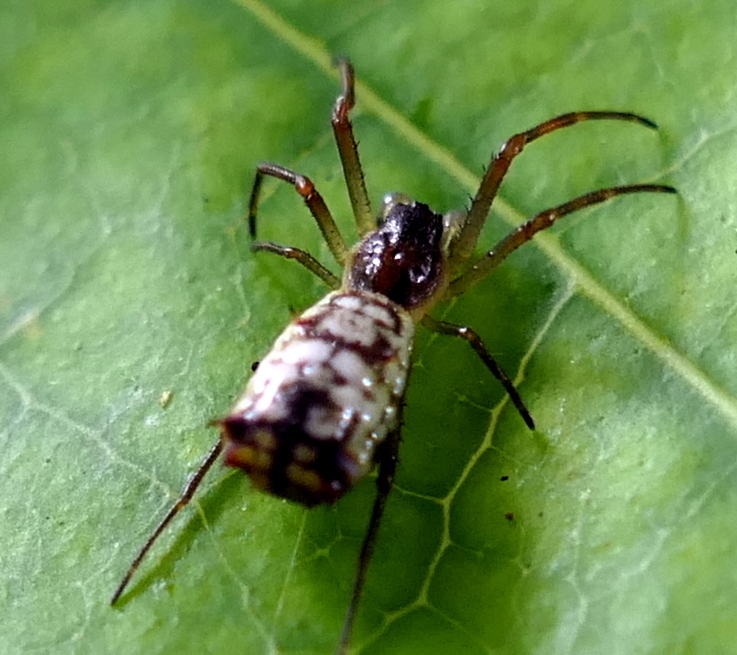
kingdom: Animalia
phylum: Arthropoda
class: Arachnida
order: Araneae
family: Araneidae
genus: Micrathena
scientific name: Micrathena fissispina
